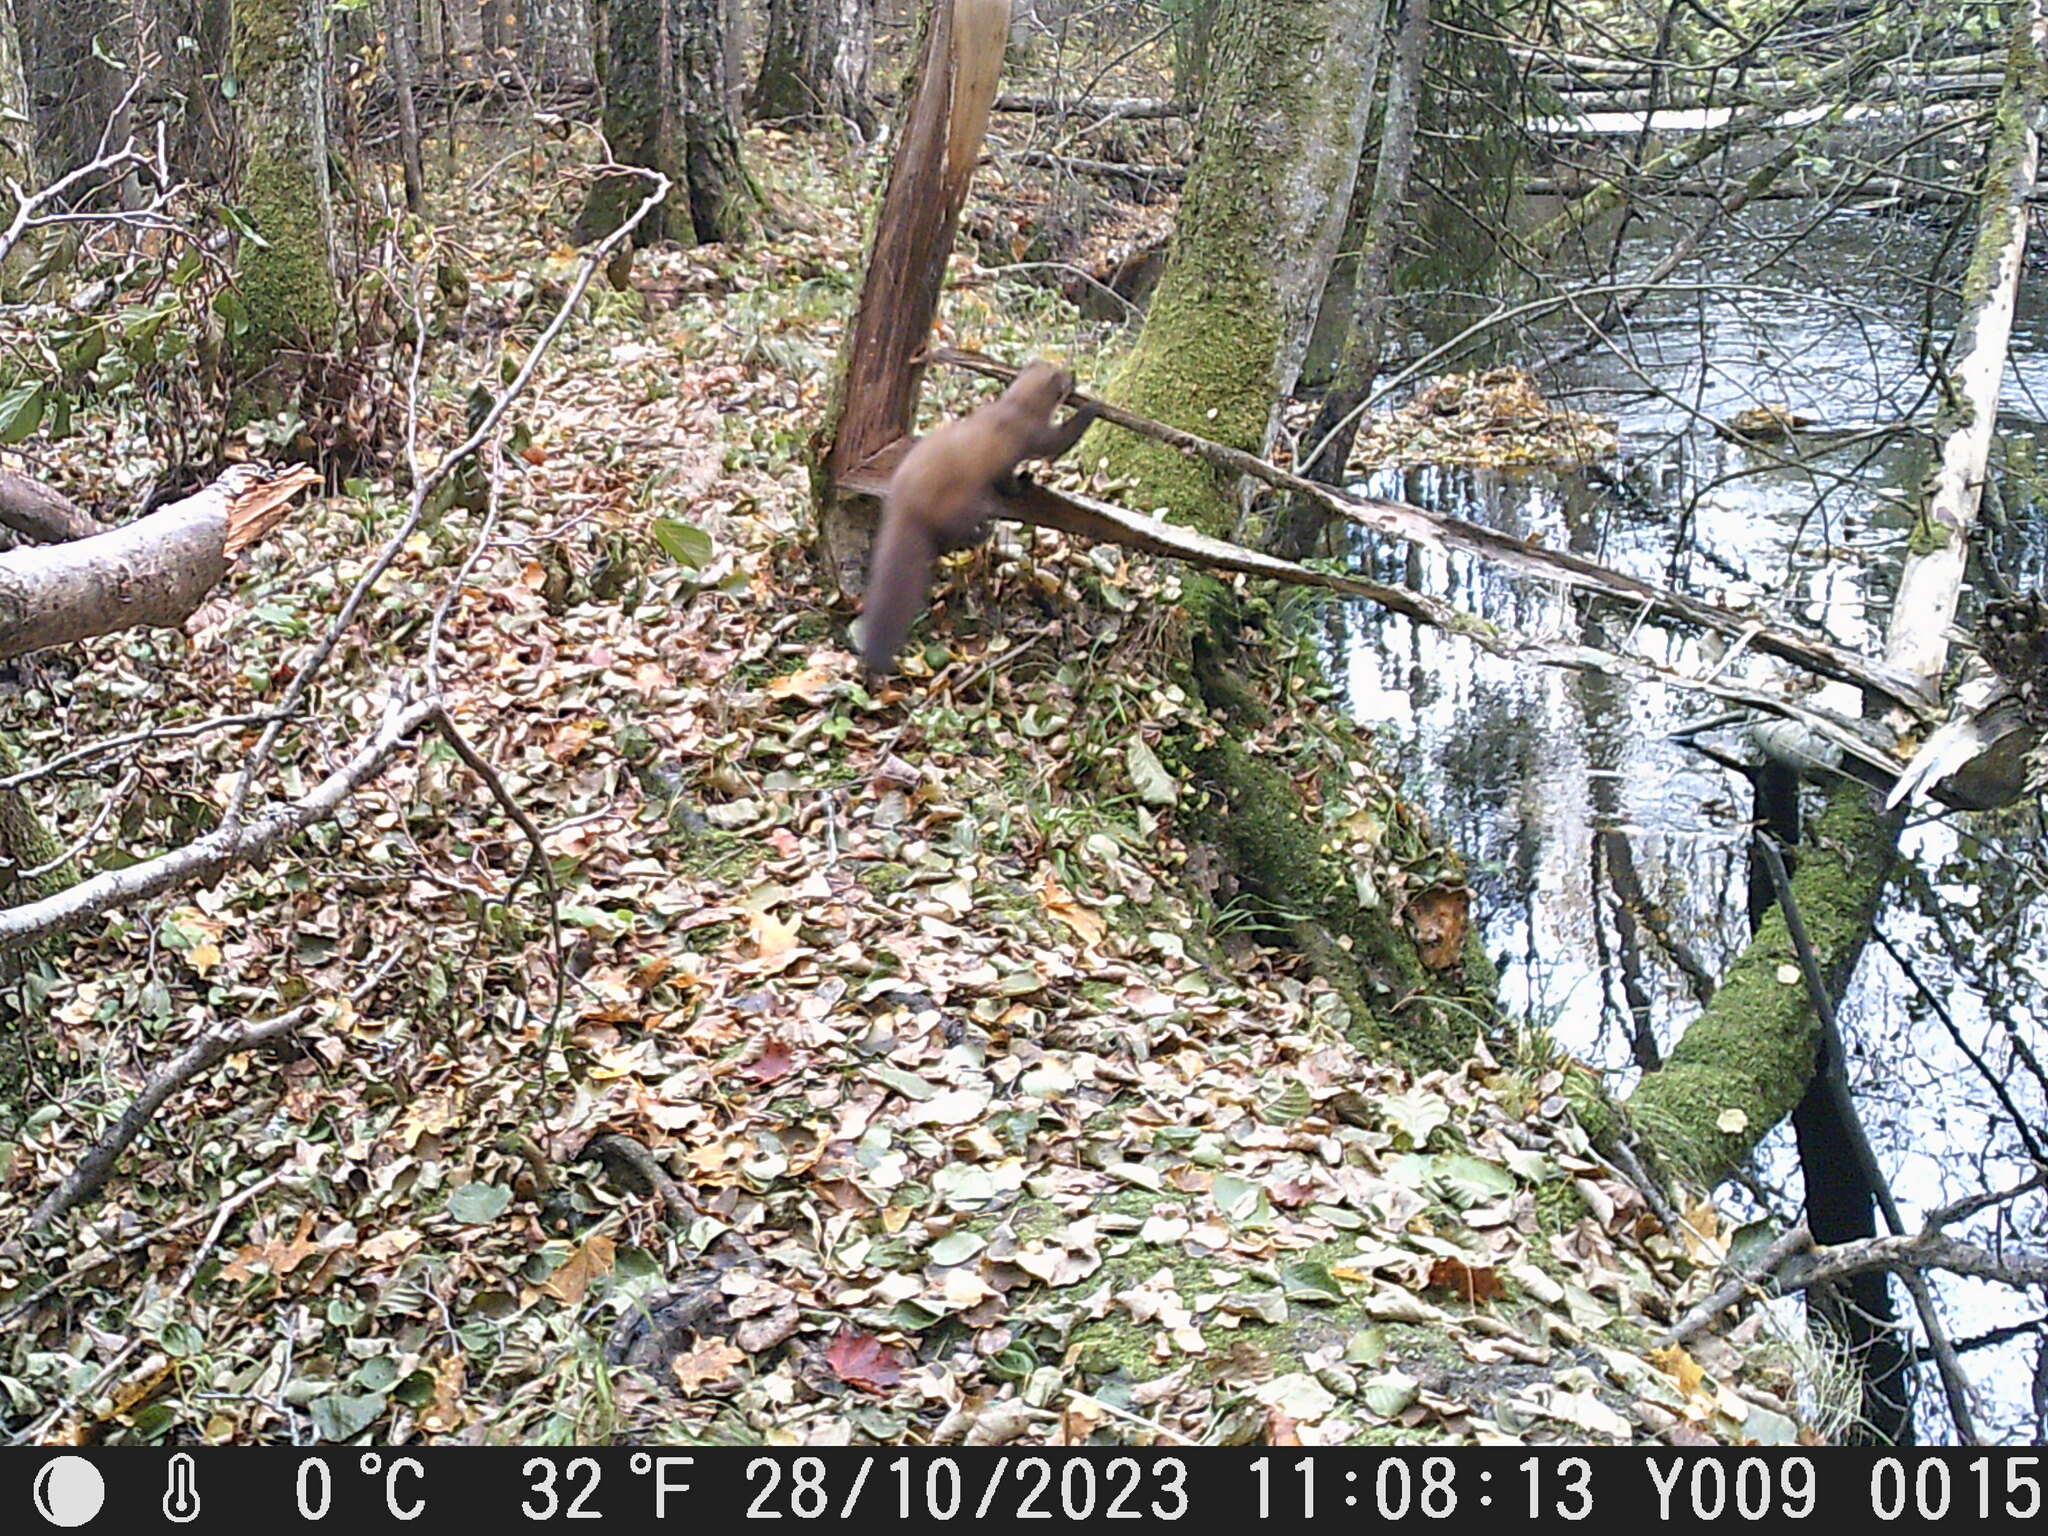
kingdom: Animalia
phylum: Chordata
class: Mammalia
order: Carnivora
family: Mustelidae
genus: Martes
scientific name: Martes martes
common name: European pine marten
